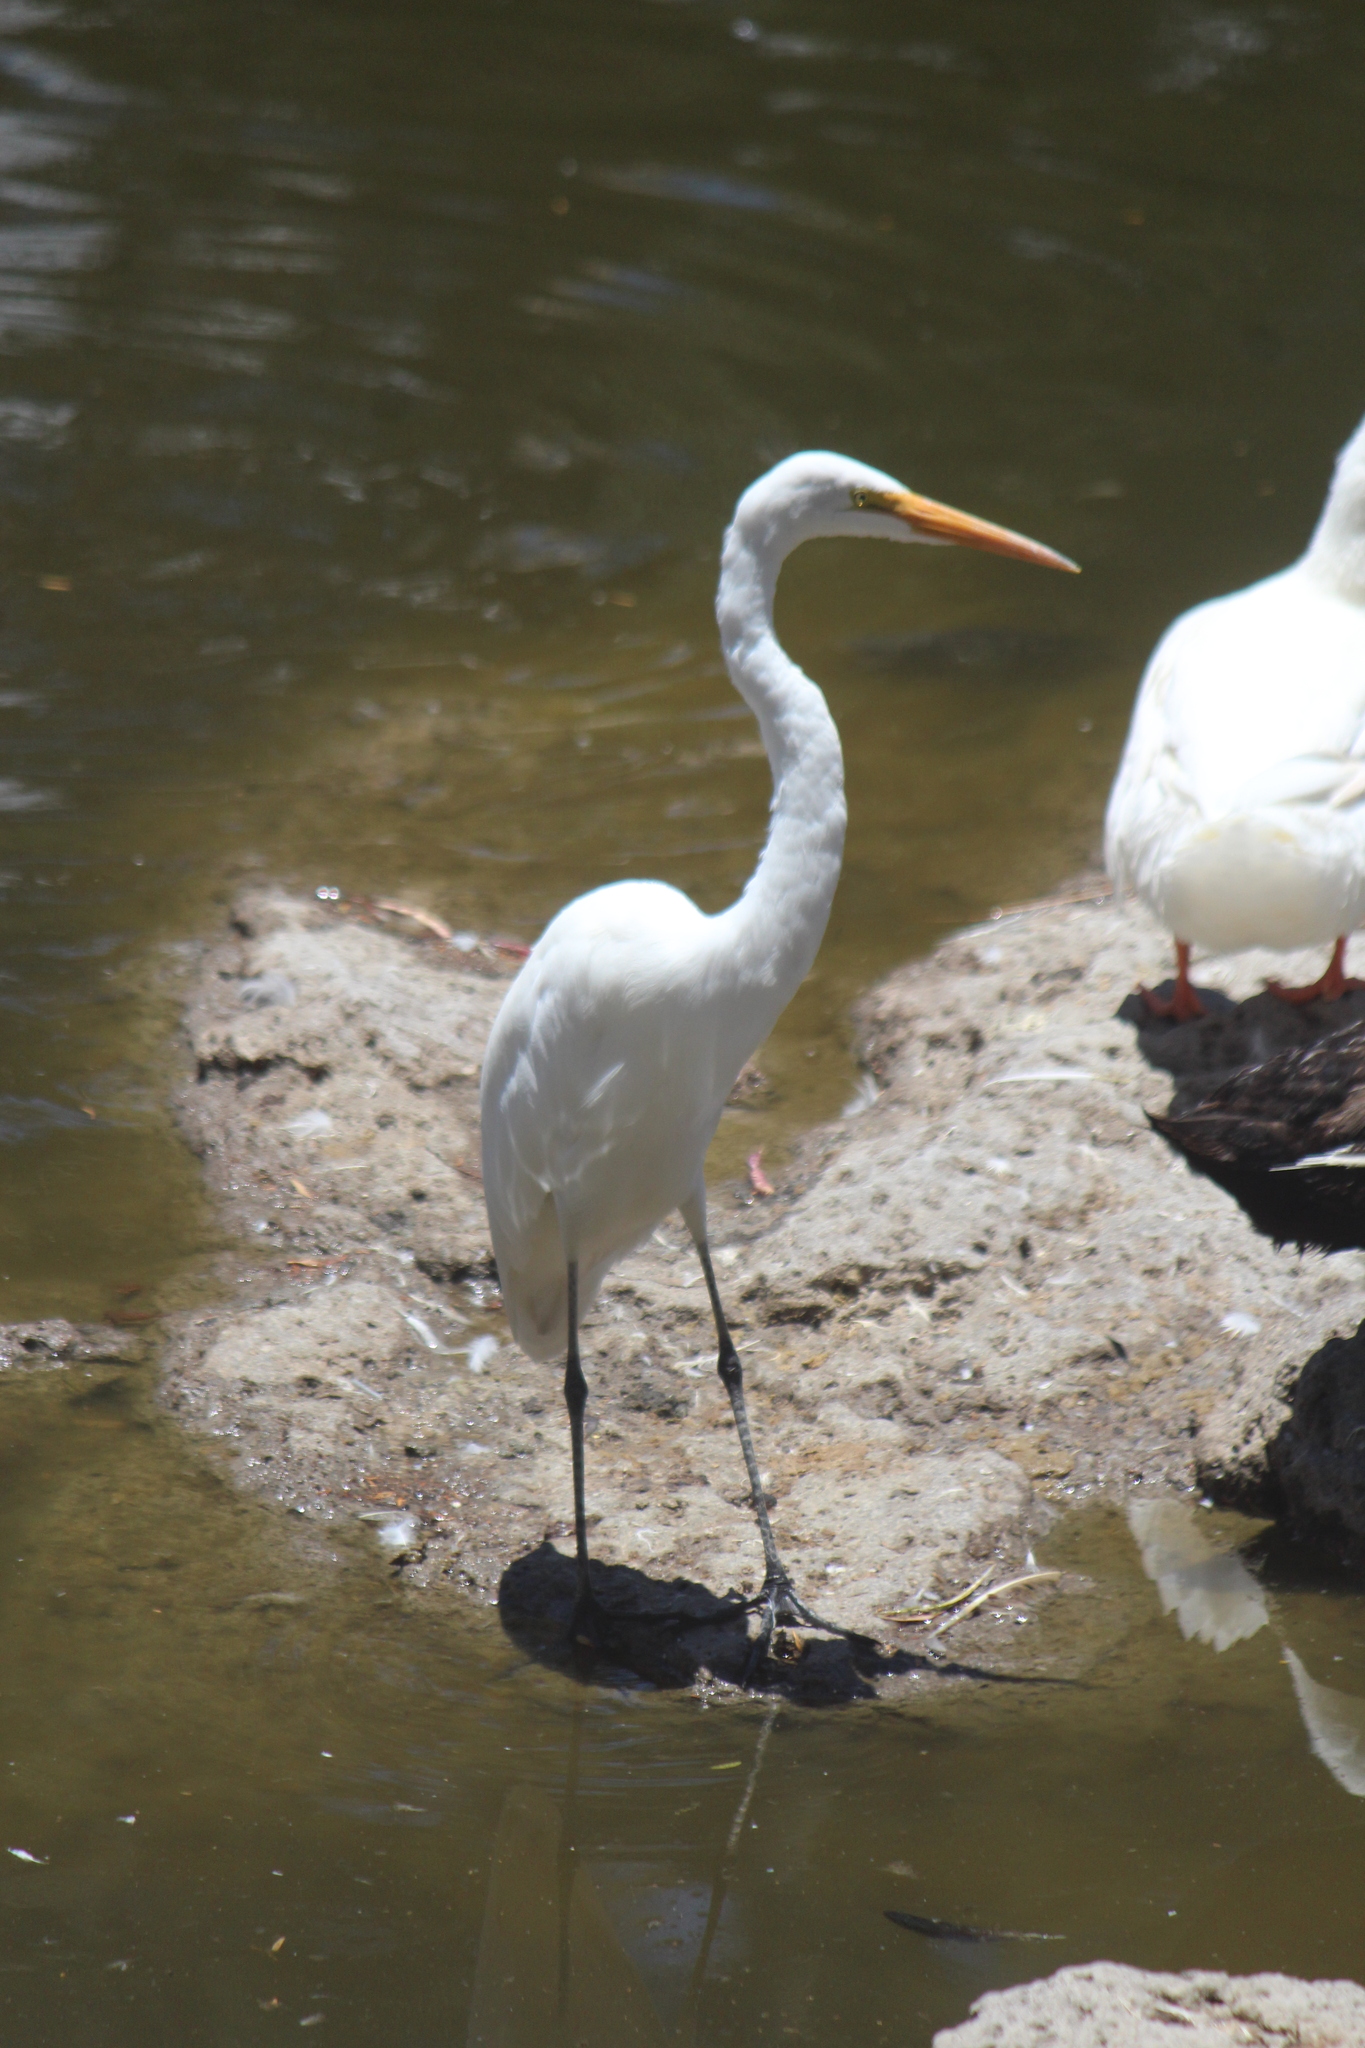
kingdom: Animalia
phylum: Chordata
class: Aves
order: Pelecaniformes
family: Ardeidae
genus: Ardea
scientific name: Ardea alba
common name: Great egret
